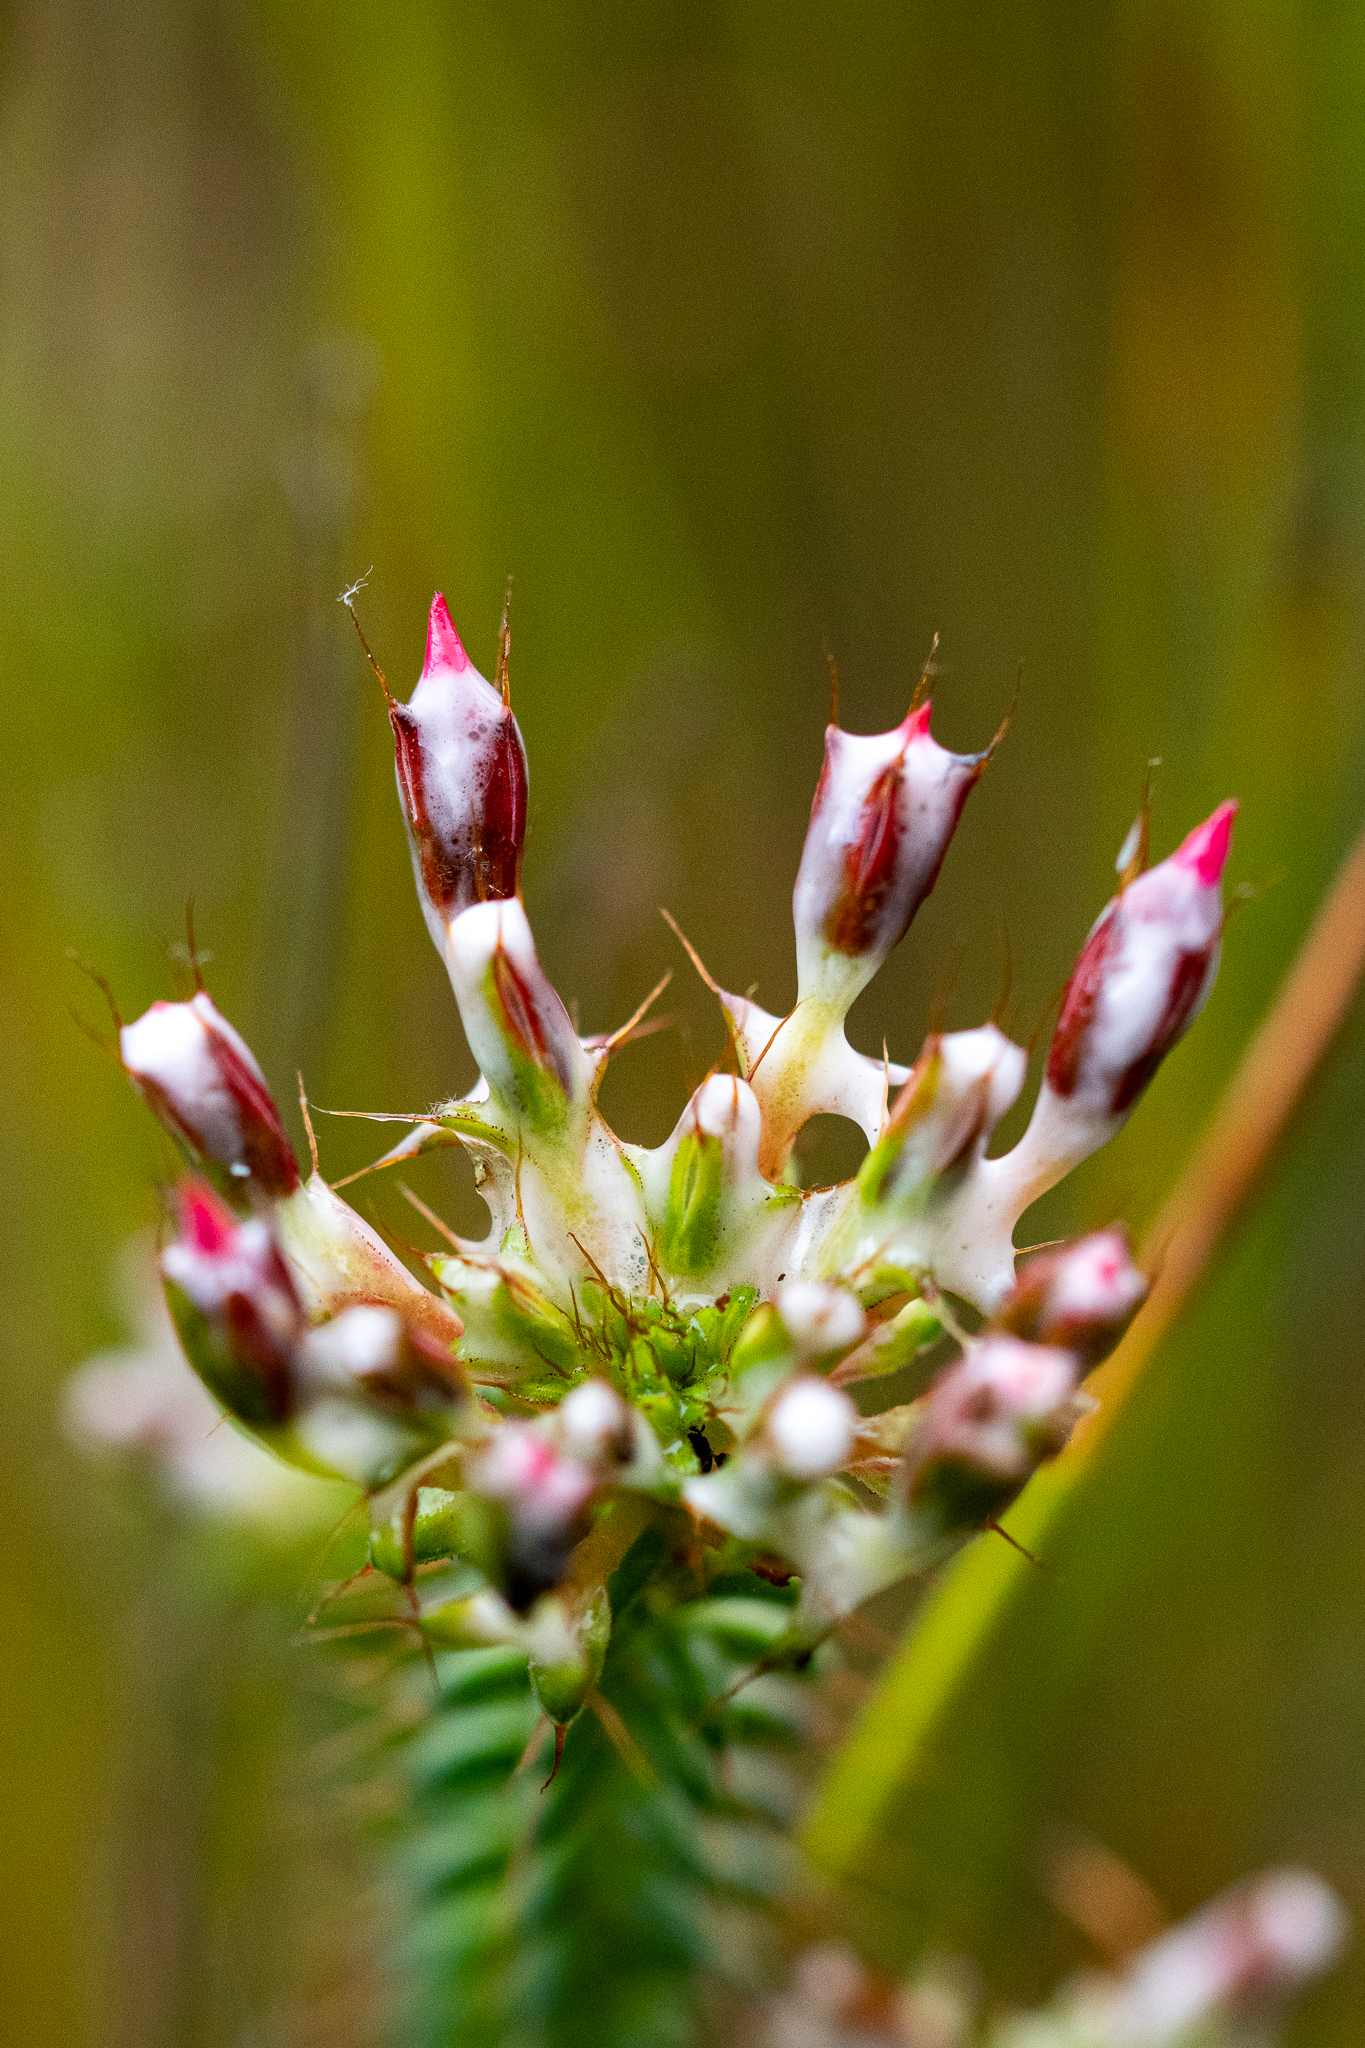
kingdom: Plantae
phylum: Tracheophyta
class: Magnoliopsida
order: Ericales
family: Ericaceae
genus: Erica
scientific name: Erica retorta
